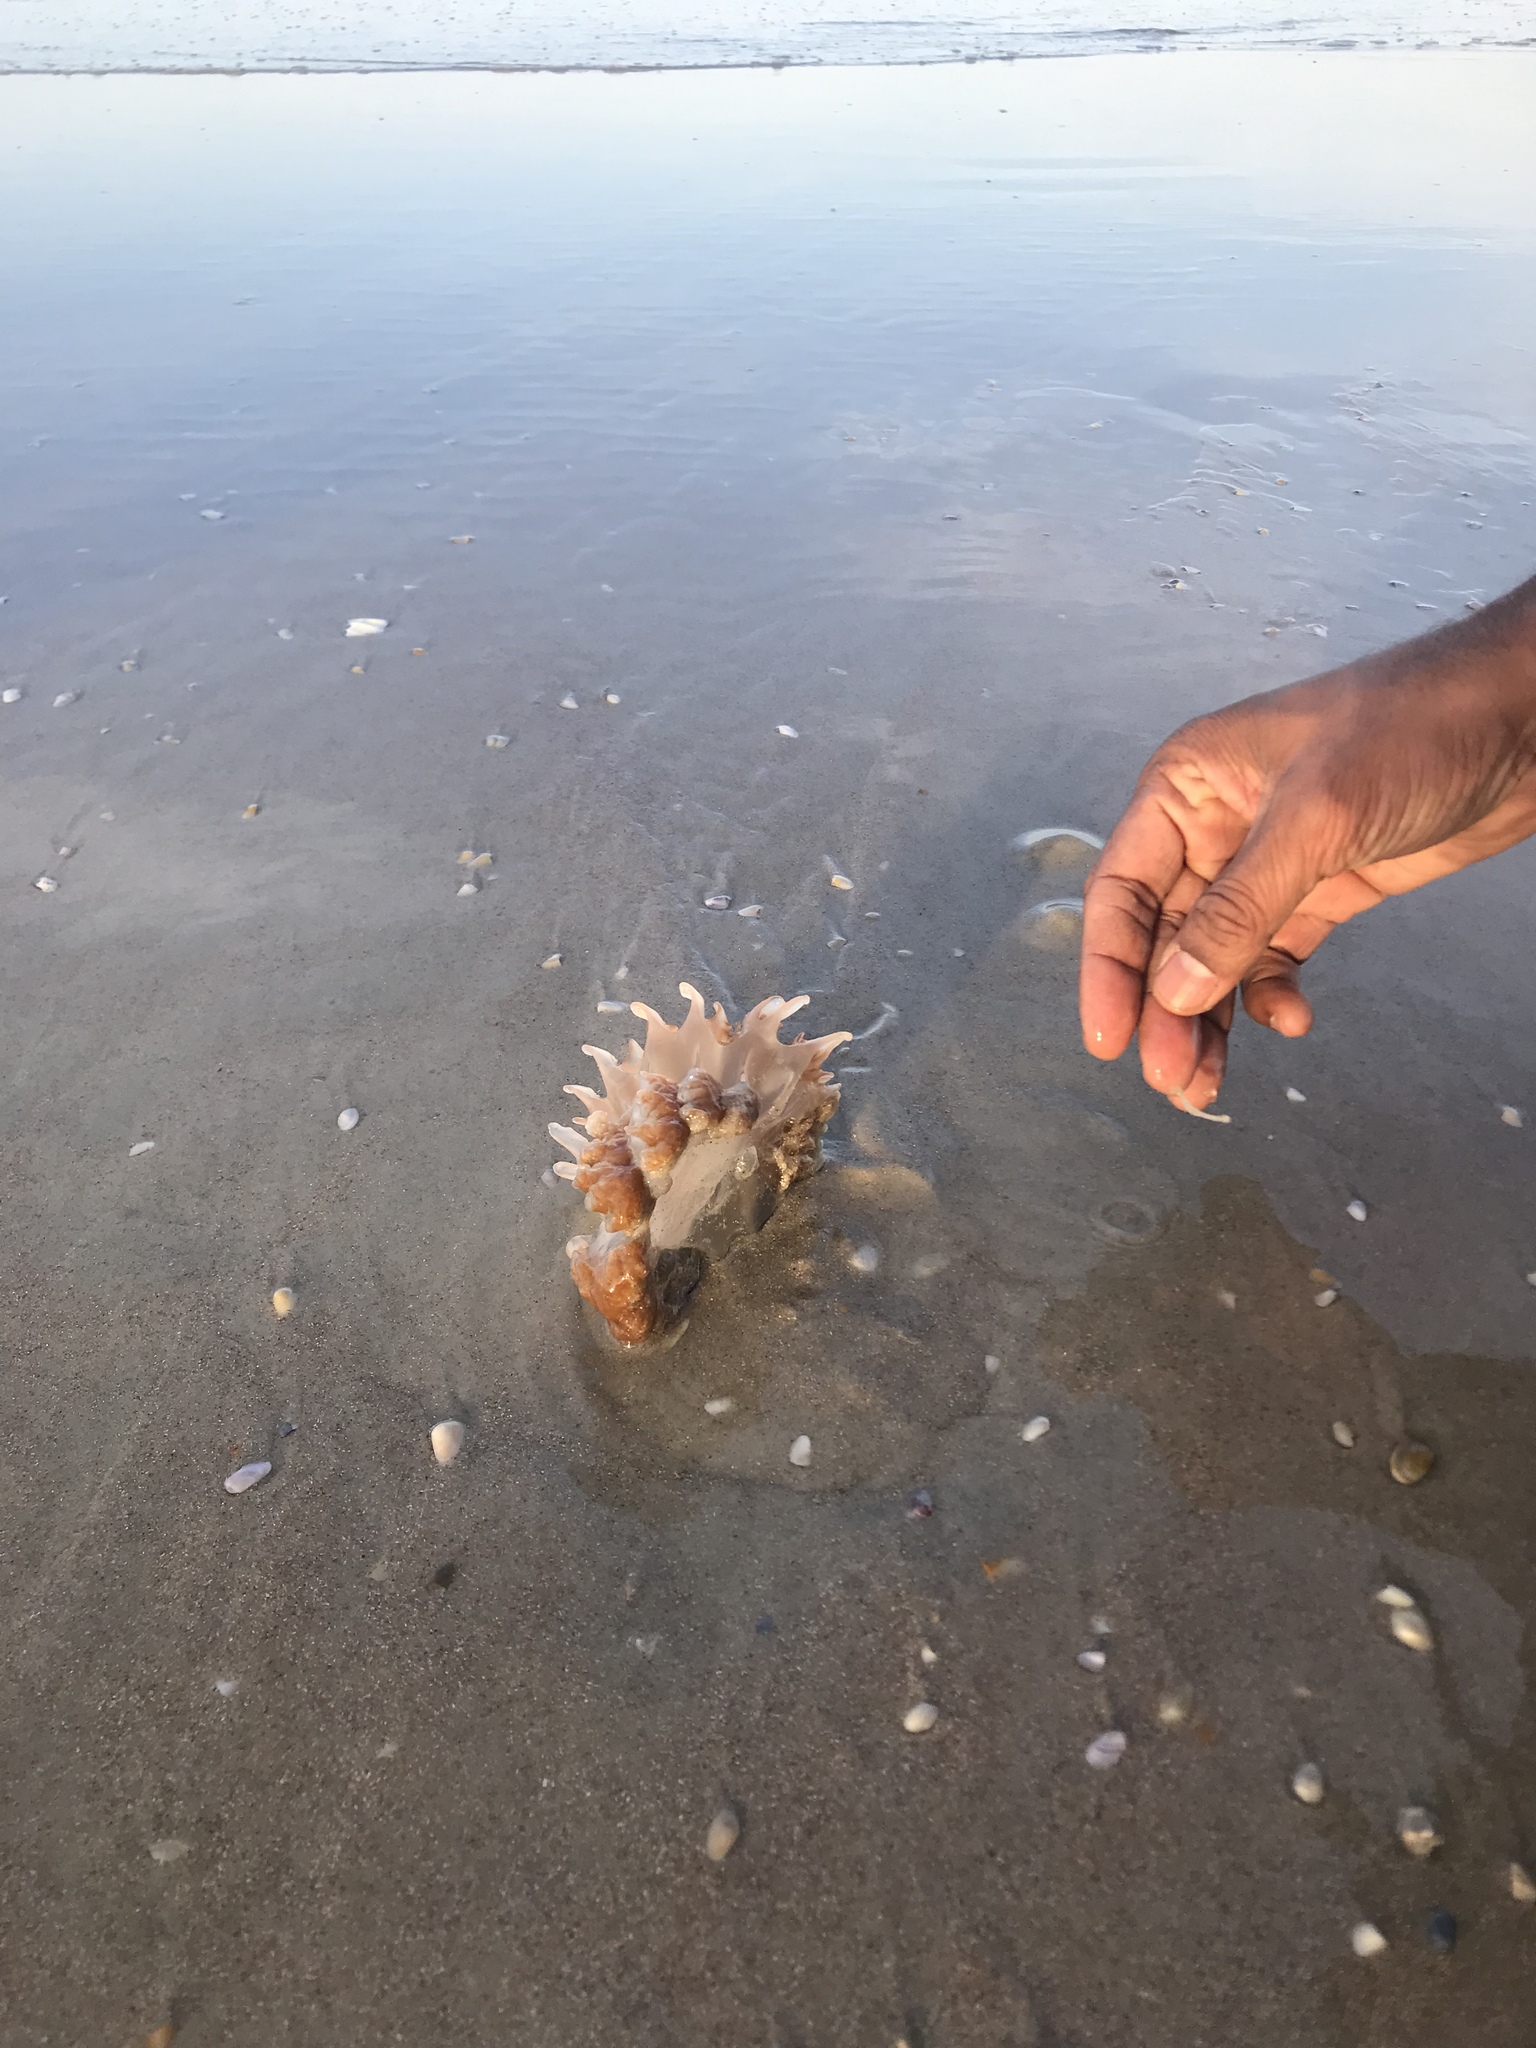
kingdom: Animalia
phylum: Cnidaria
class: Scyphozoa
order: Rhizostomeae
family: Stomolophidae
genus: Stomolophus
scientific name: Stomolophus meleagris
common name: Cabbagehead
